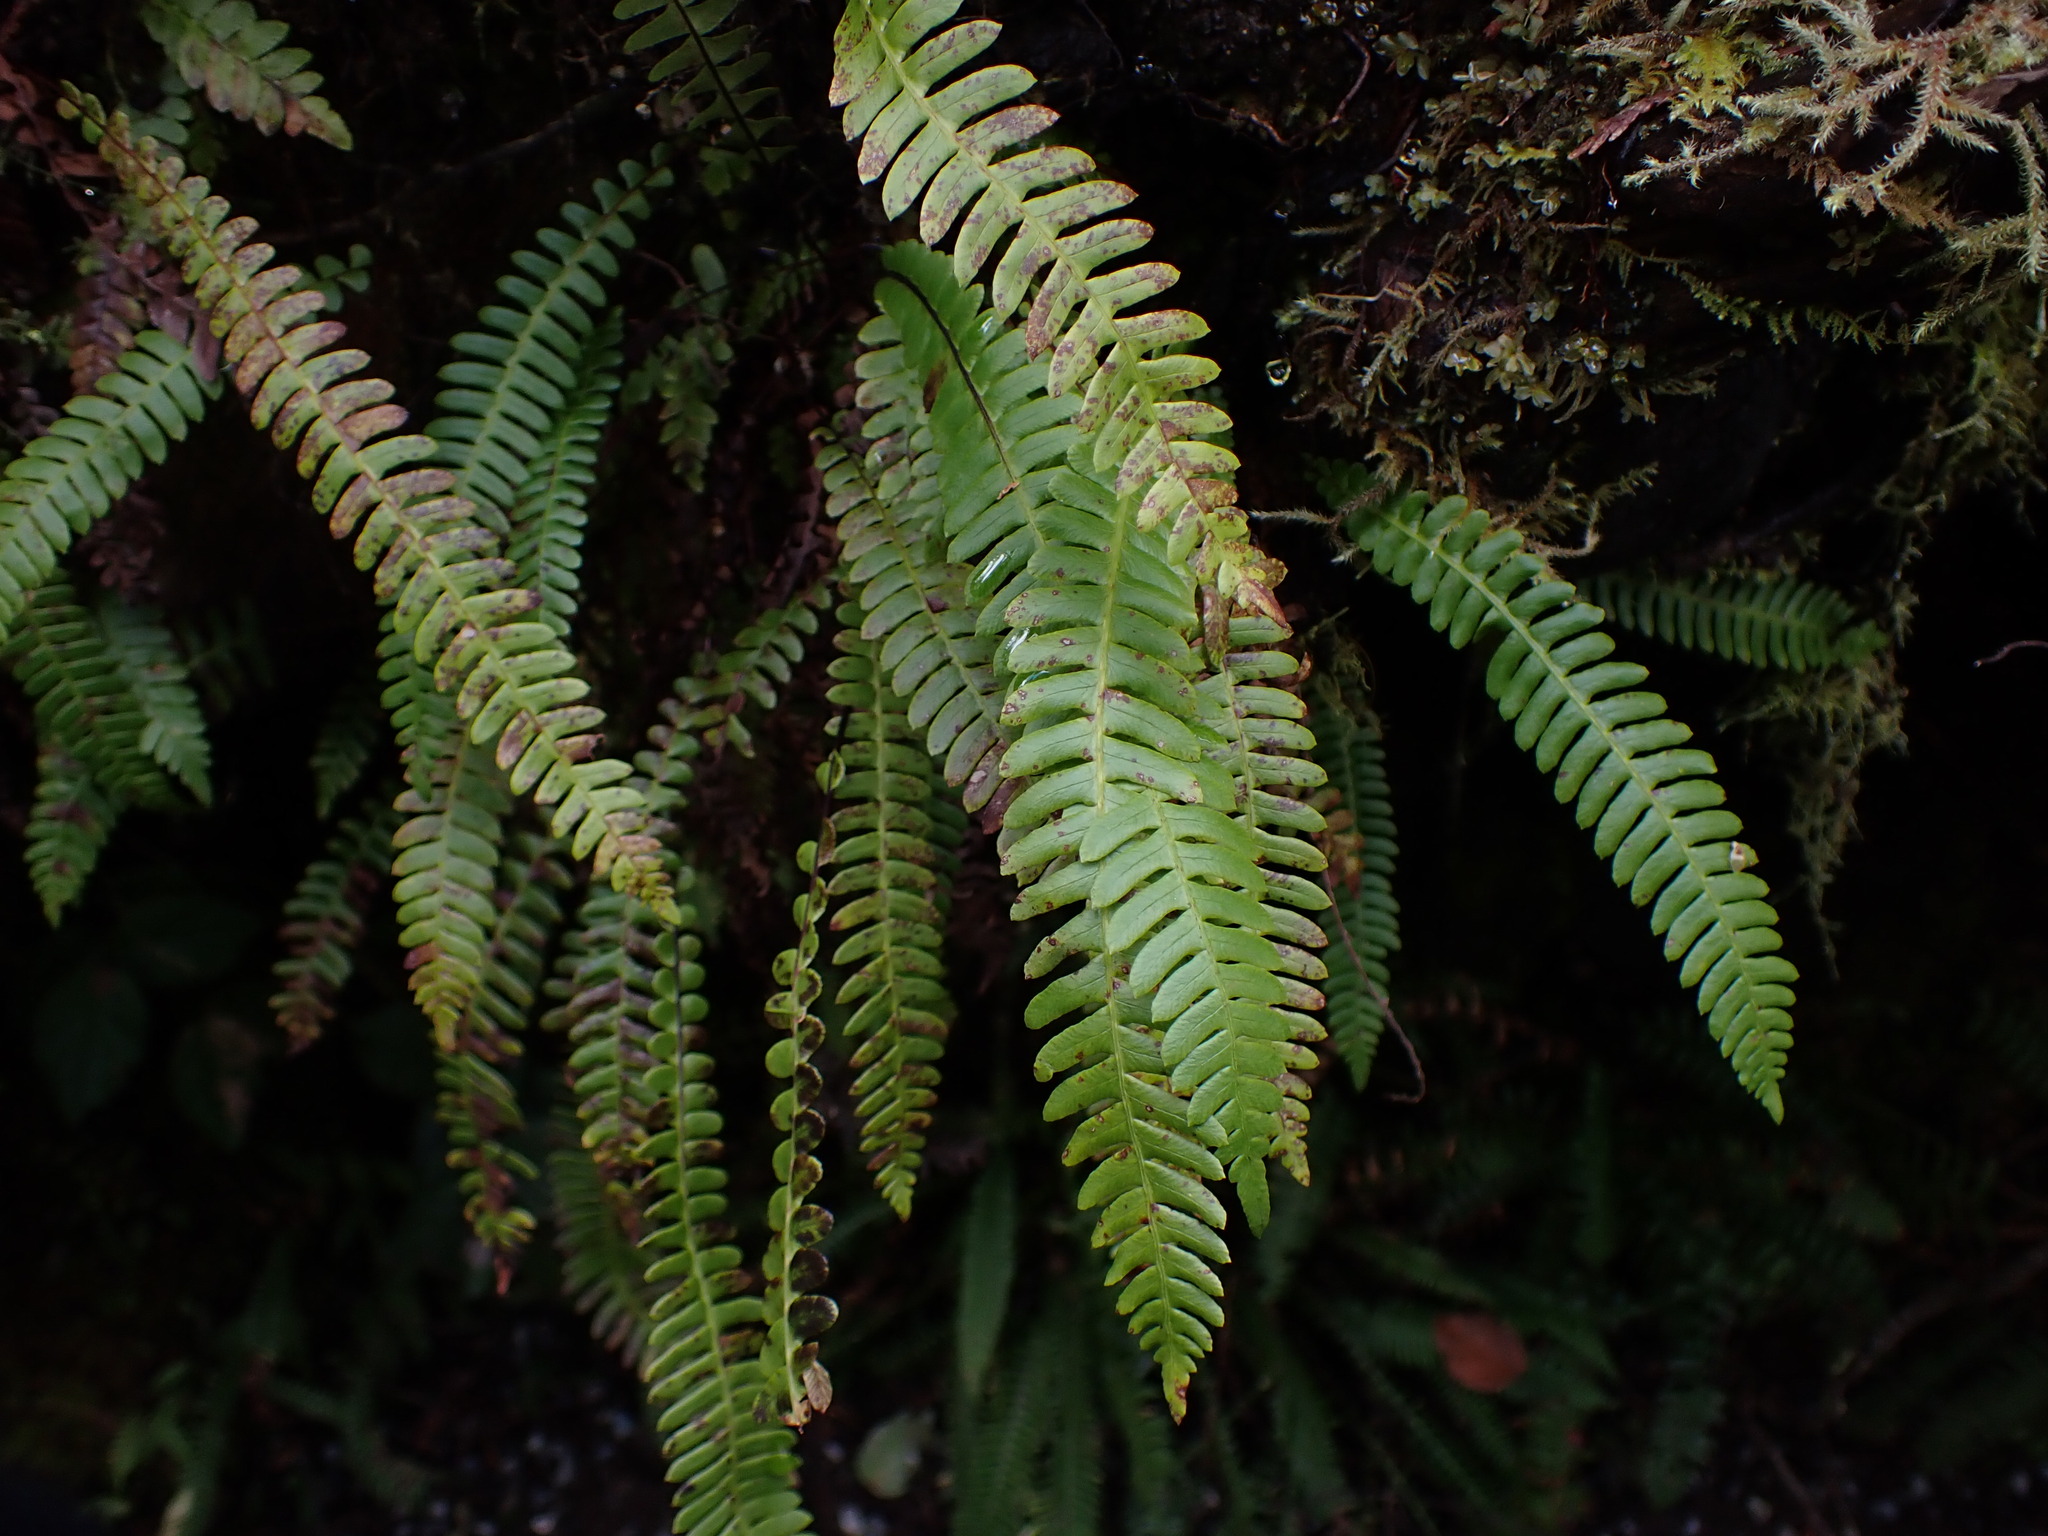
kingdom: Plantae
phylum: Tracheophyta
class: Polypodiopsida
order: Polypodiales
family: Blechnaceae
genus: Struthiopteris
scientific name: Struthiopteris spicant
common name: Deer fern
